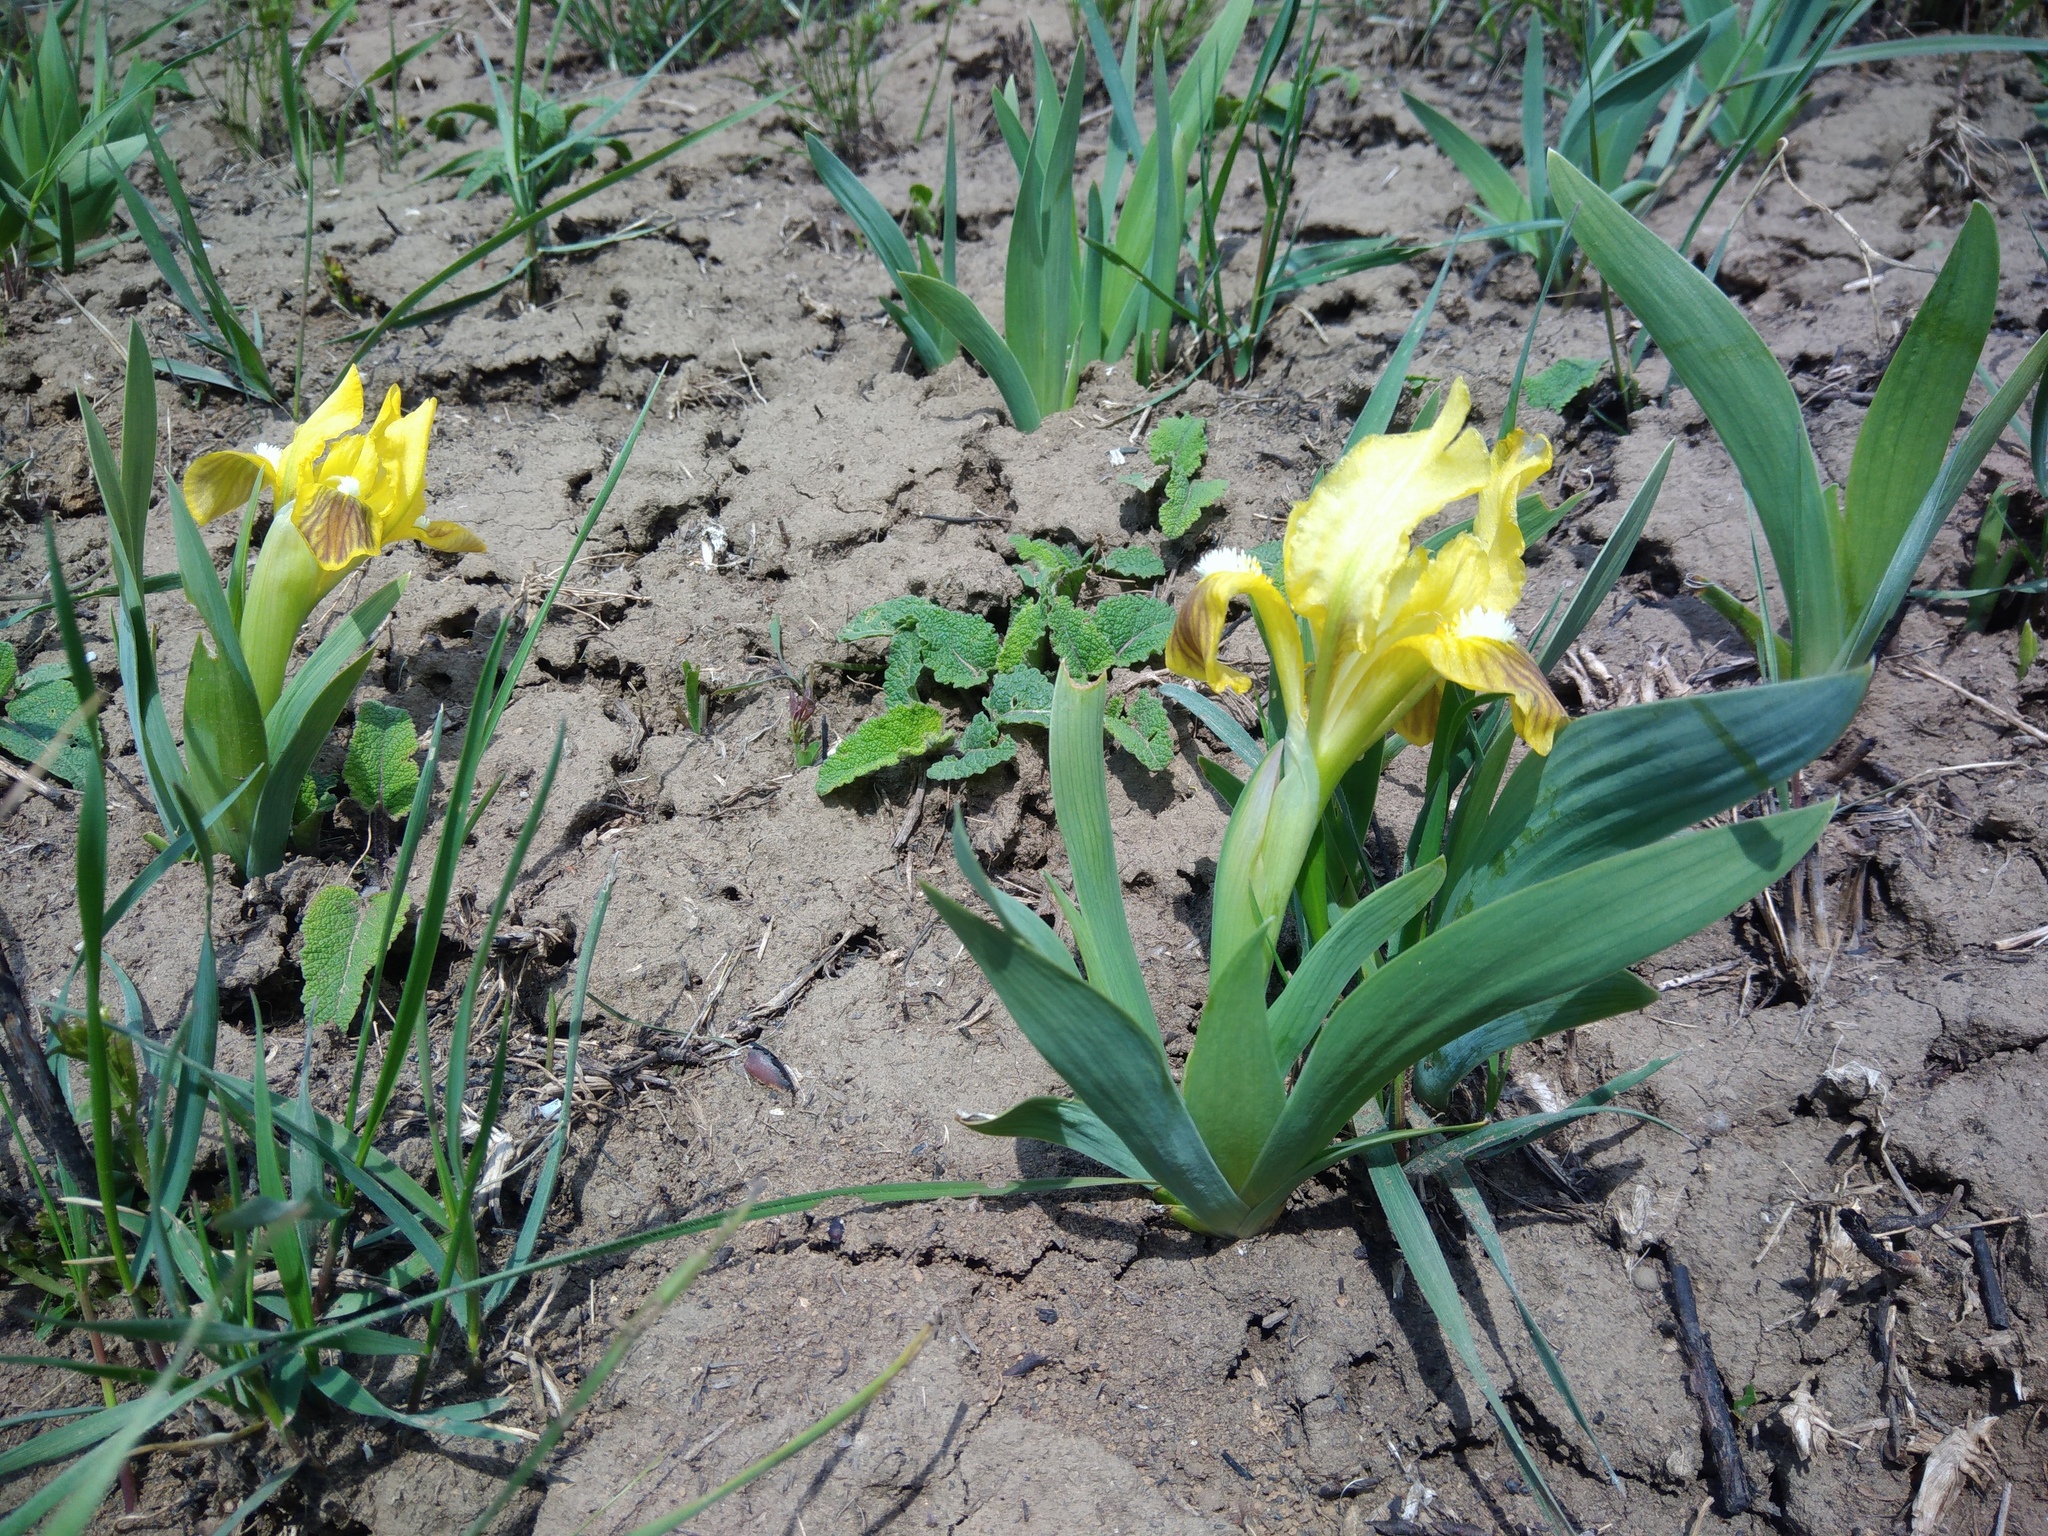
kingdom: Plantae
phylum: Tracheophyta
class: Liliopsida
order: Asparagales
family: Iridaceae
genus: Iris
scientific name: Iris pumila
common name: Dwarf iris
